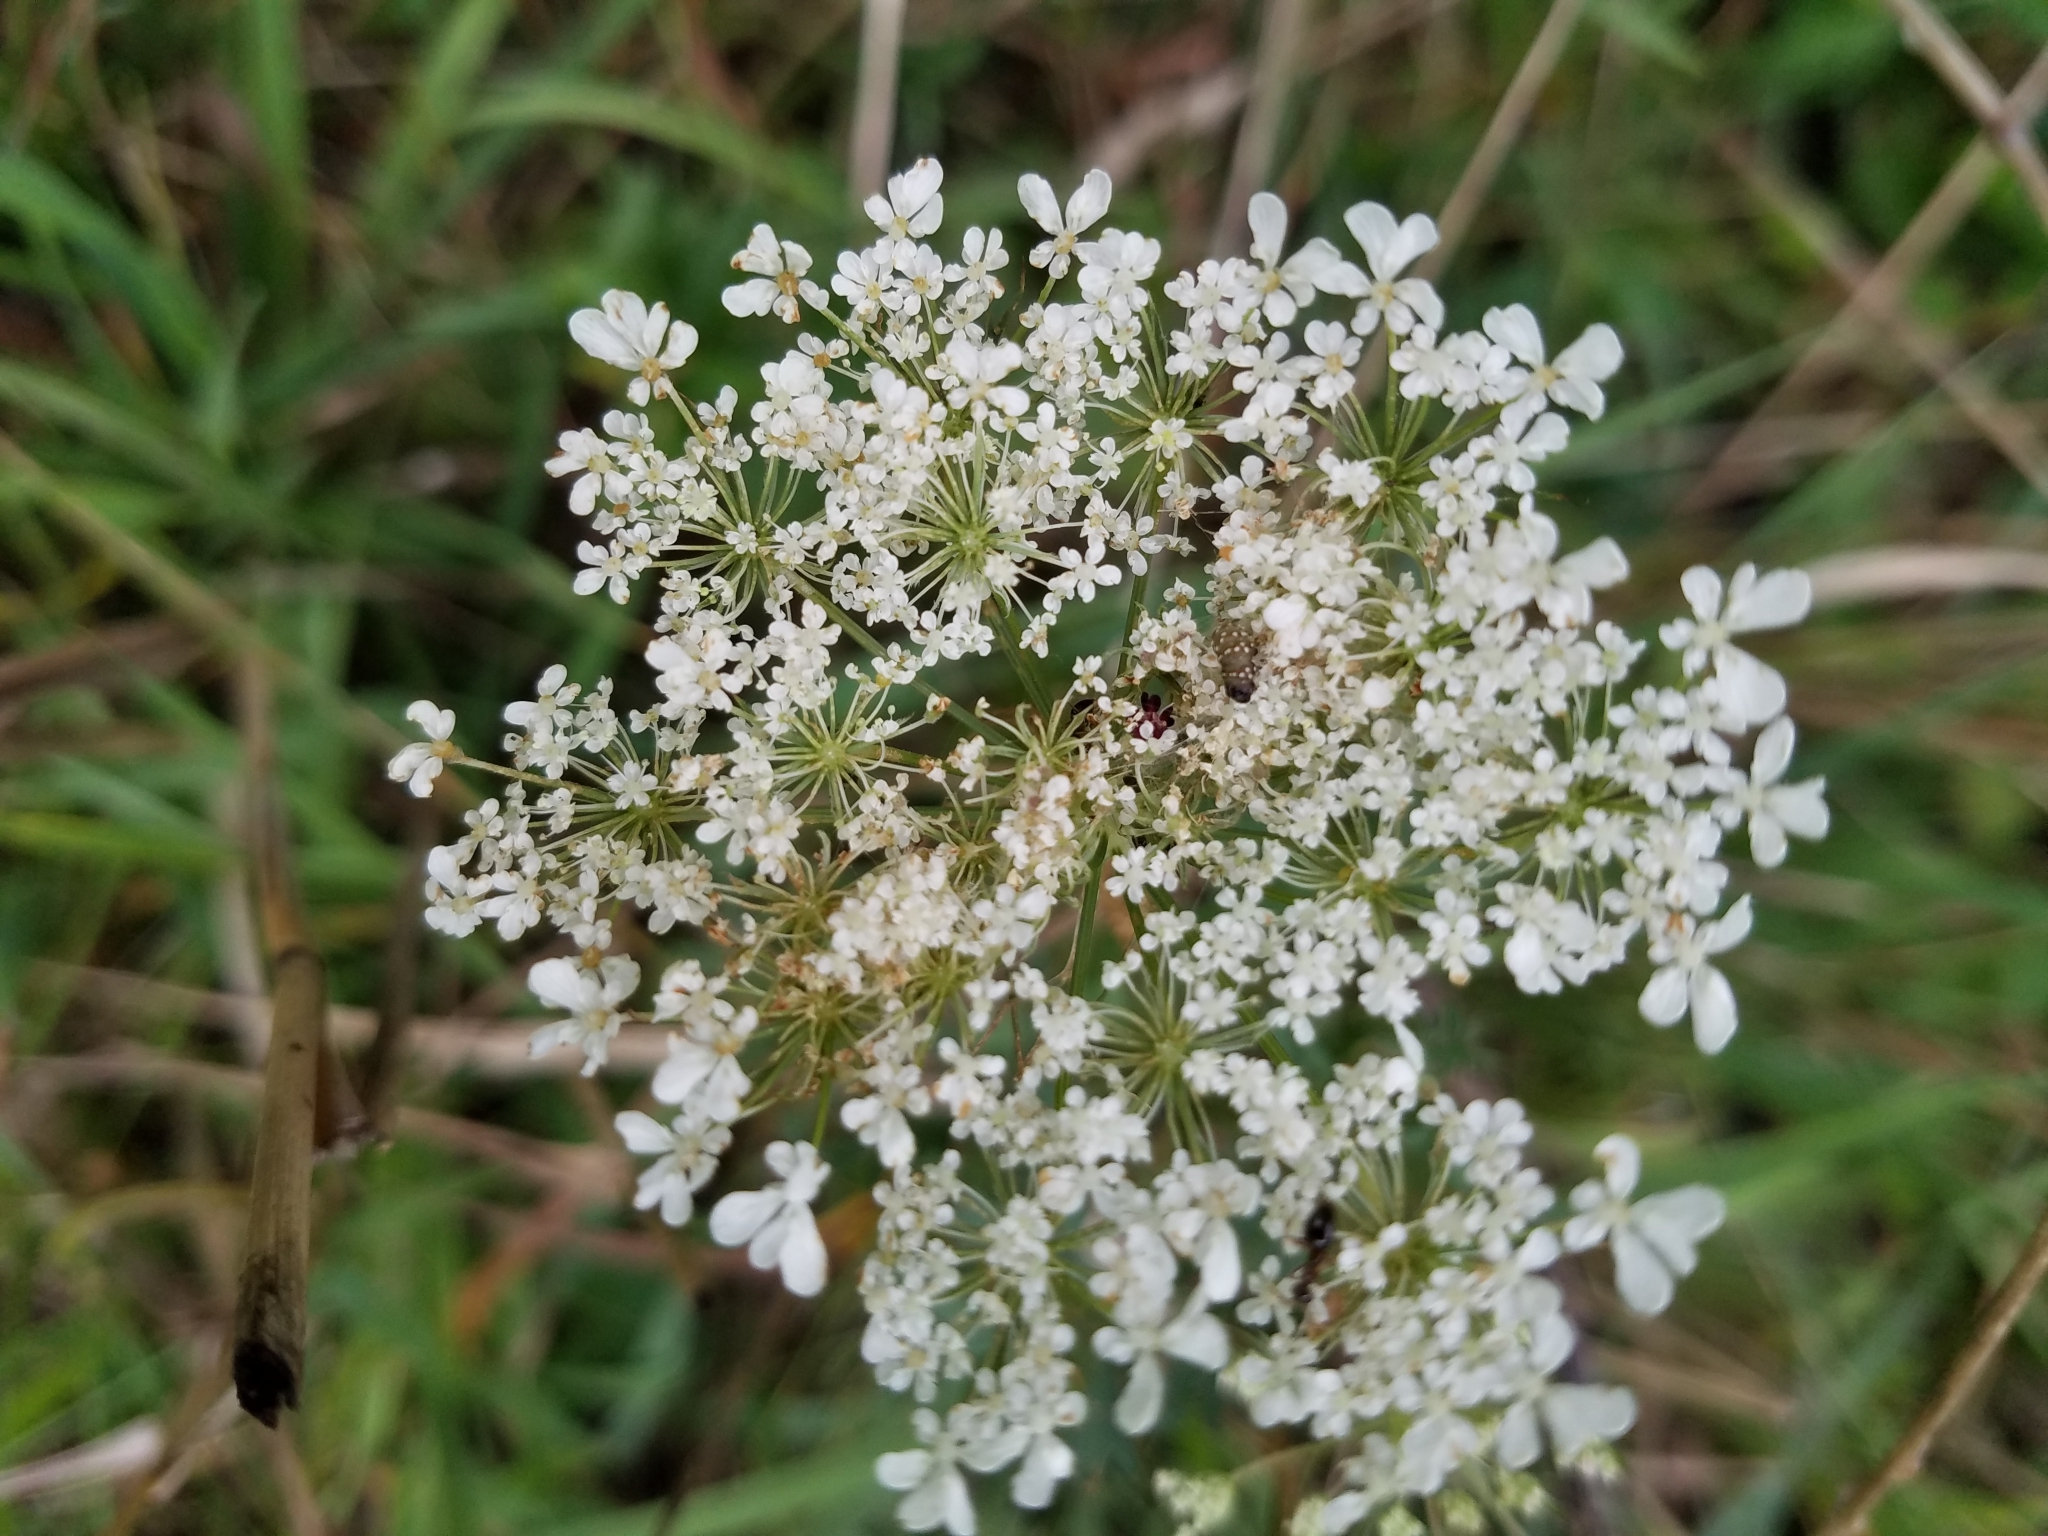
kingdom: Plantae
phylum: Tracheophyta
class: Magnoliopsida
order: Apiales
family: Apiaceae
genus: Daucus
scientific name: Daucus carota
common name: Wild carrot
